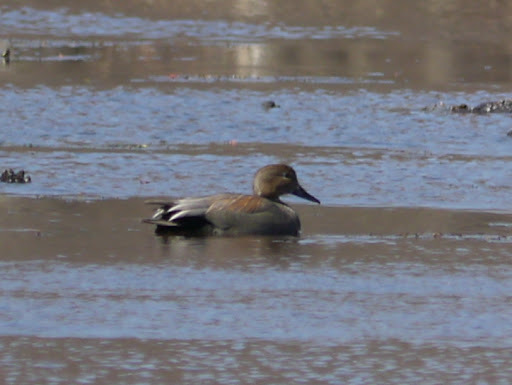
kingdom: Animalia
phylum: Chordata
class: Aves
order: Anseriformes
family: Anatidae
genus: Mareca
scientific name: Mareca strepera
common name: Gadwall
